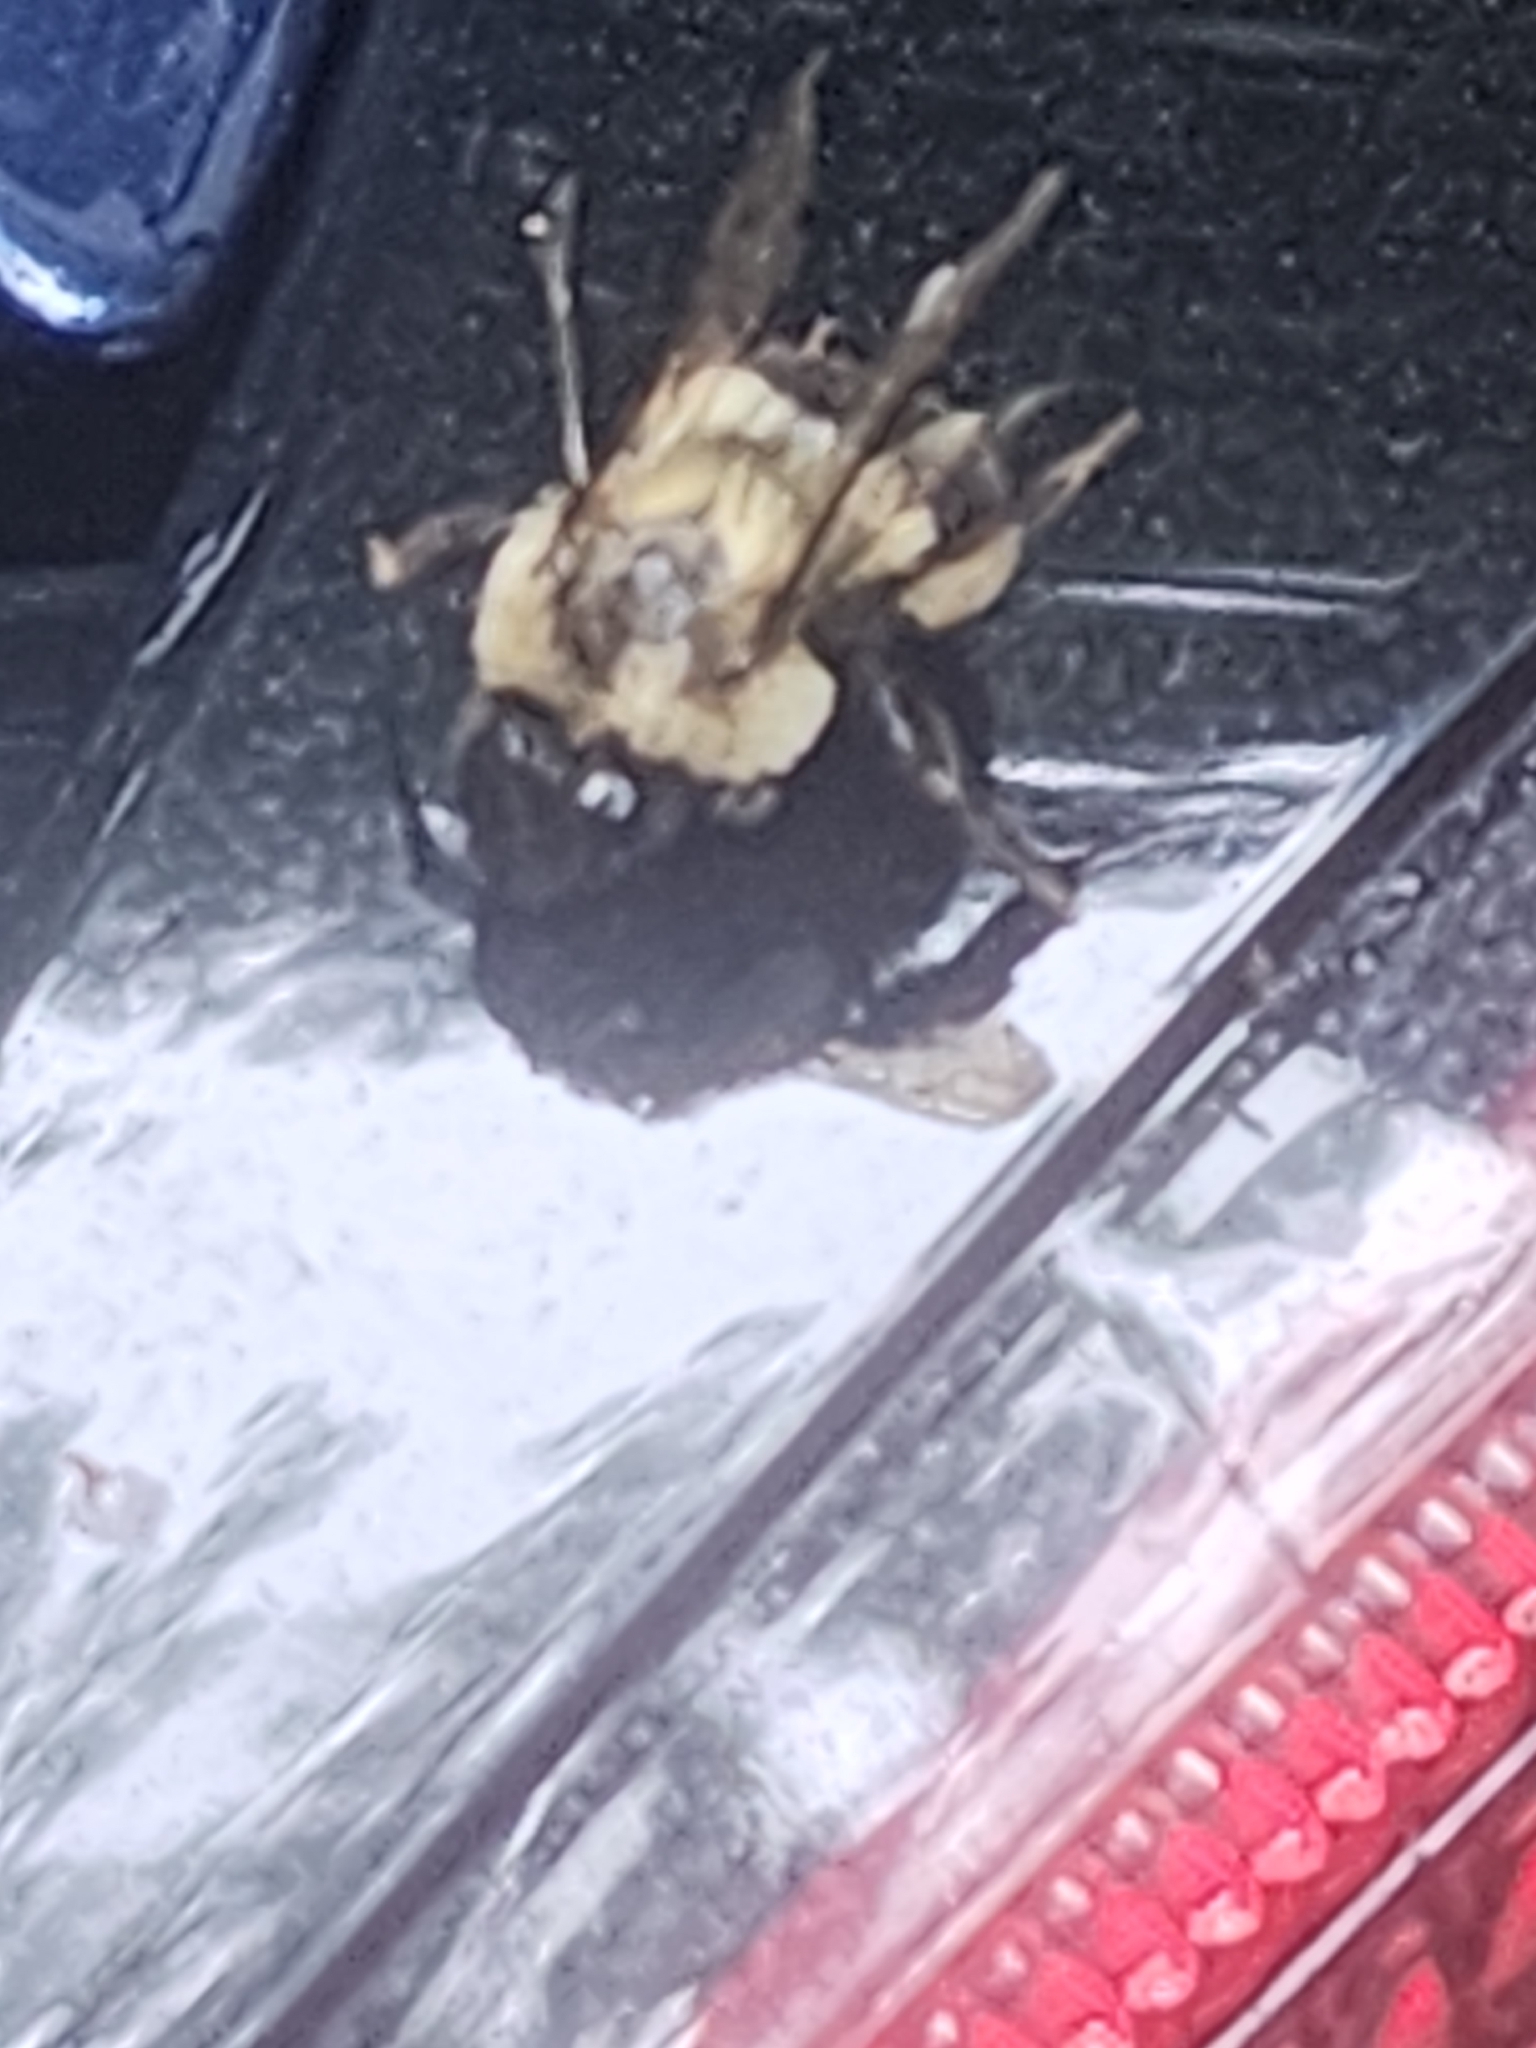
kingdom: Animalia
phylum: Arthropoda
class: Insecta
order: Hymenoptera
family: Apidae
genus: Bombus
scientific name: Bombus impatiens
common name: Common eastern bumble bee
